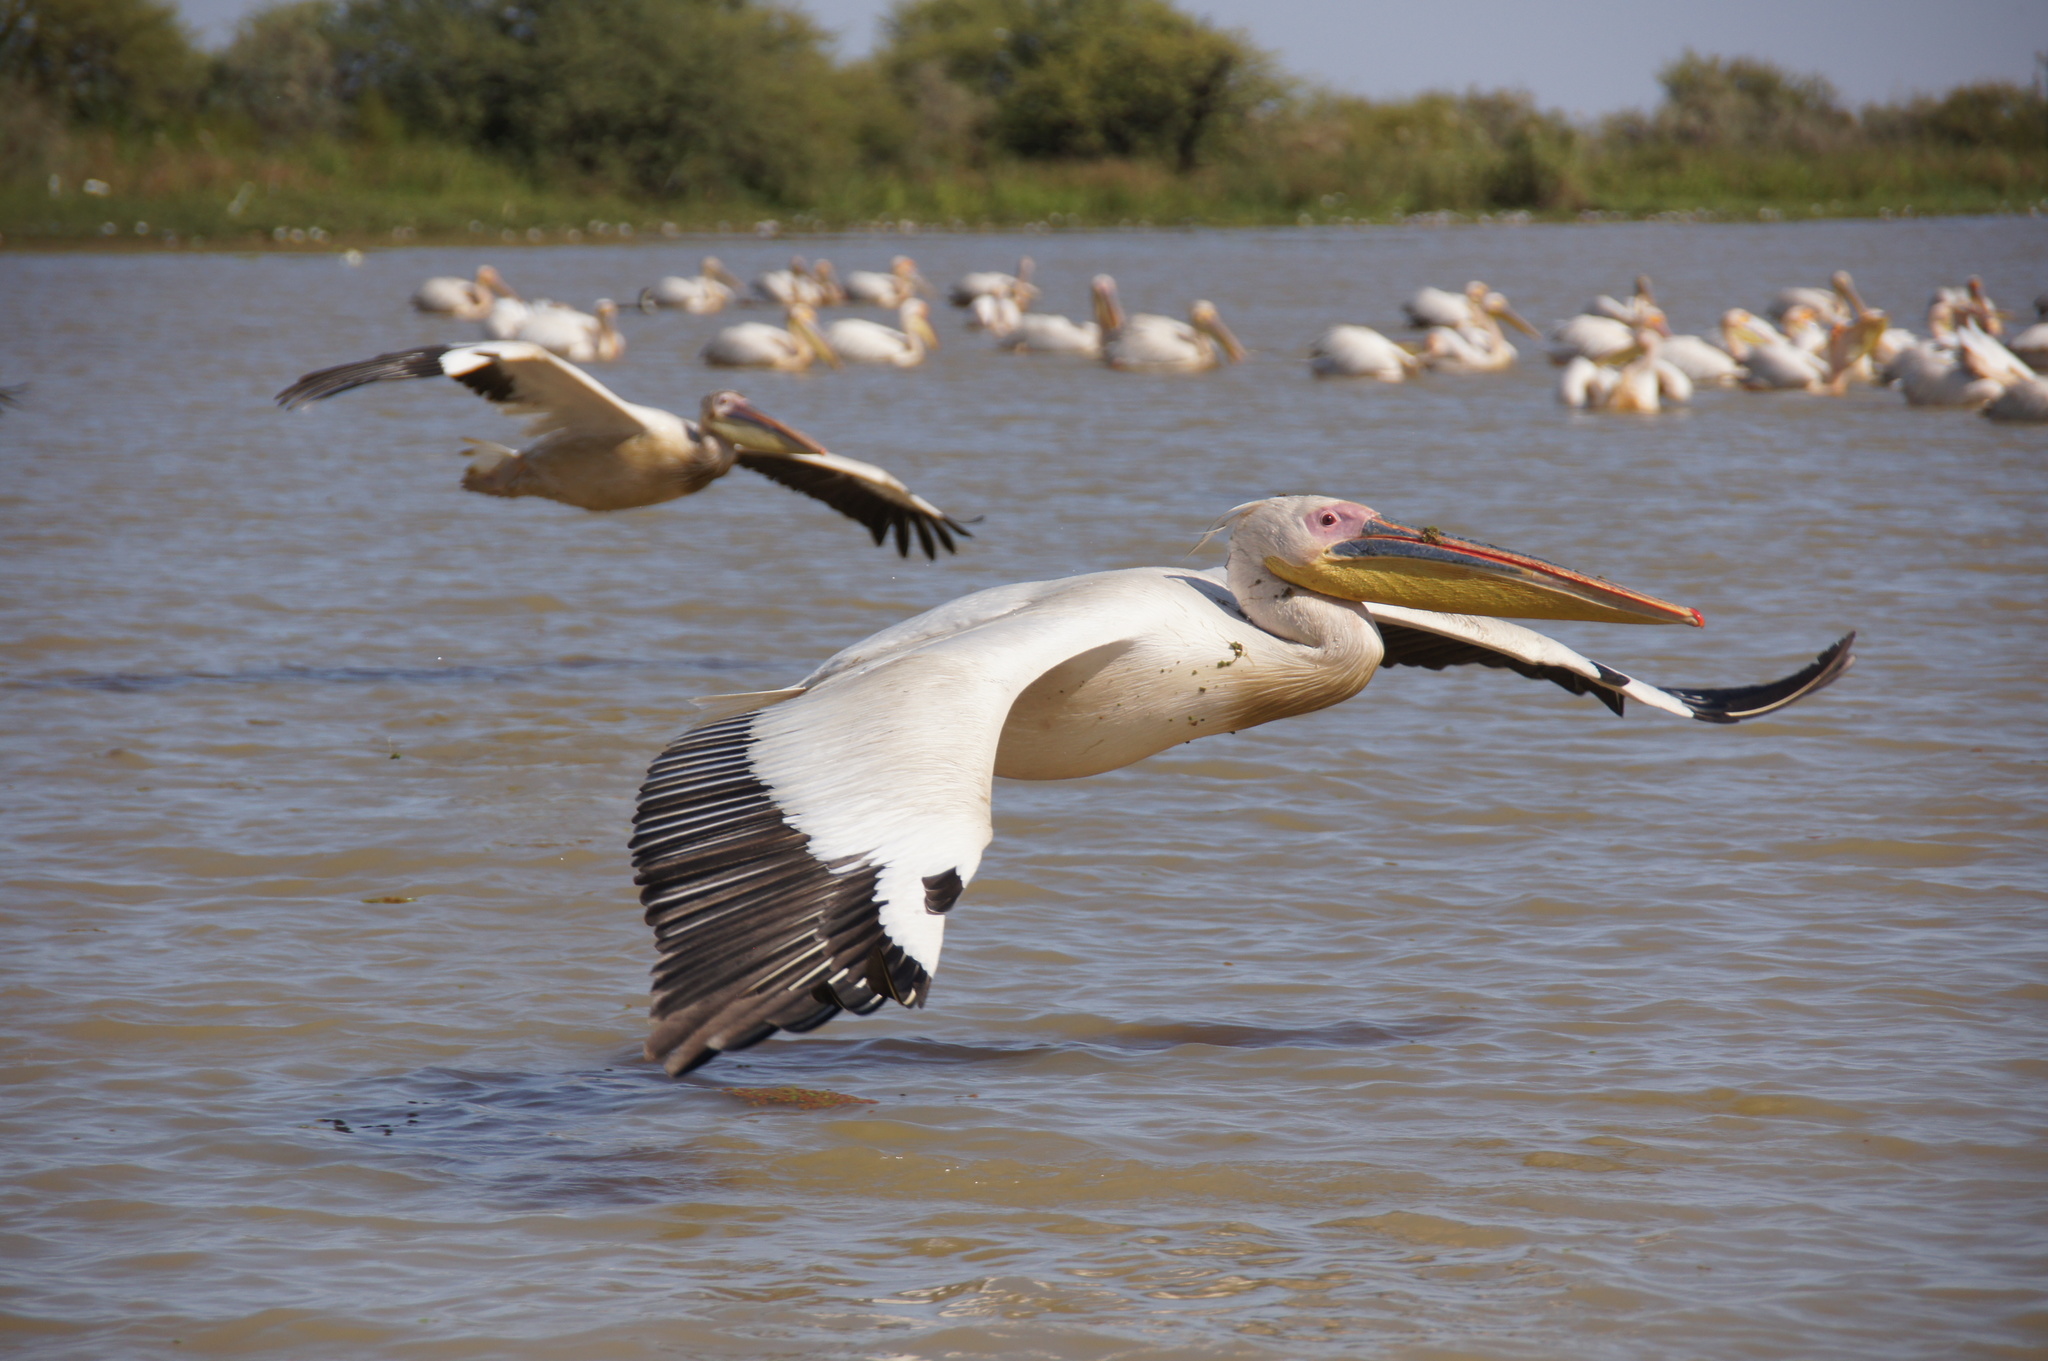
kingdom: Animalia
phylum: Chordata
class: Aves
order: Pelecaniformes
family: Pelecanidae
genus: Pelecanus
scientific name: Pelecanus onocrotalus
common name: Great white pelican
